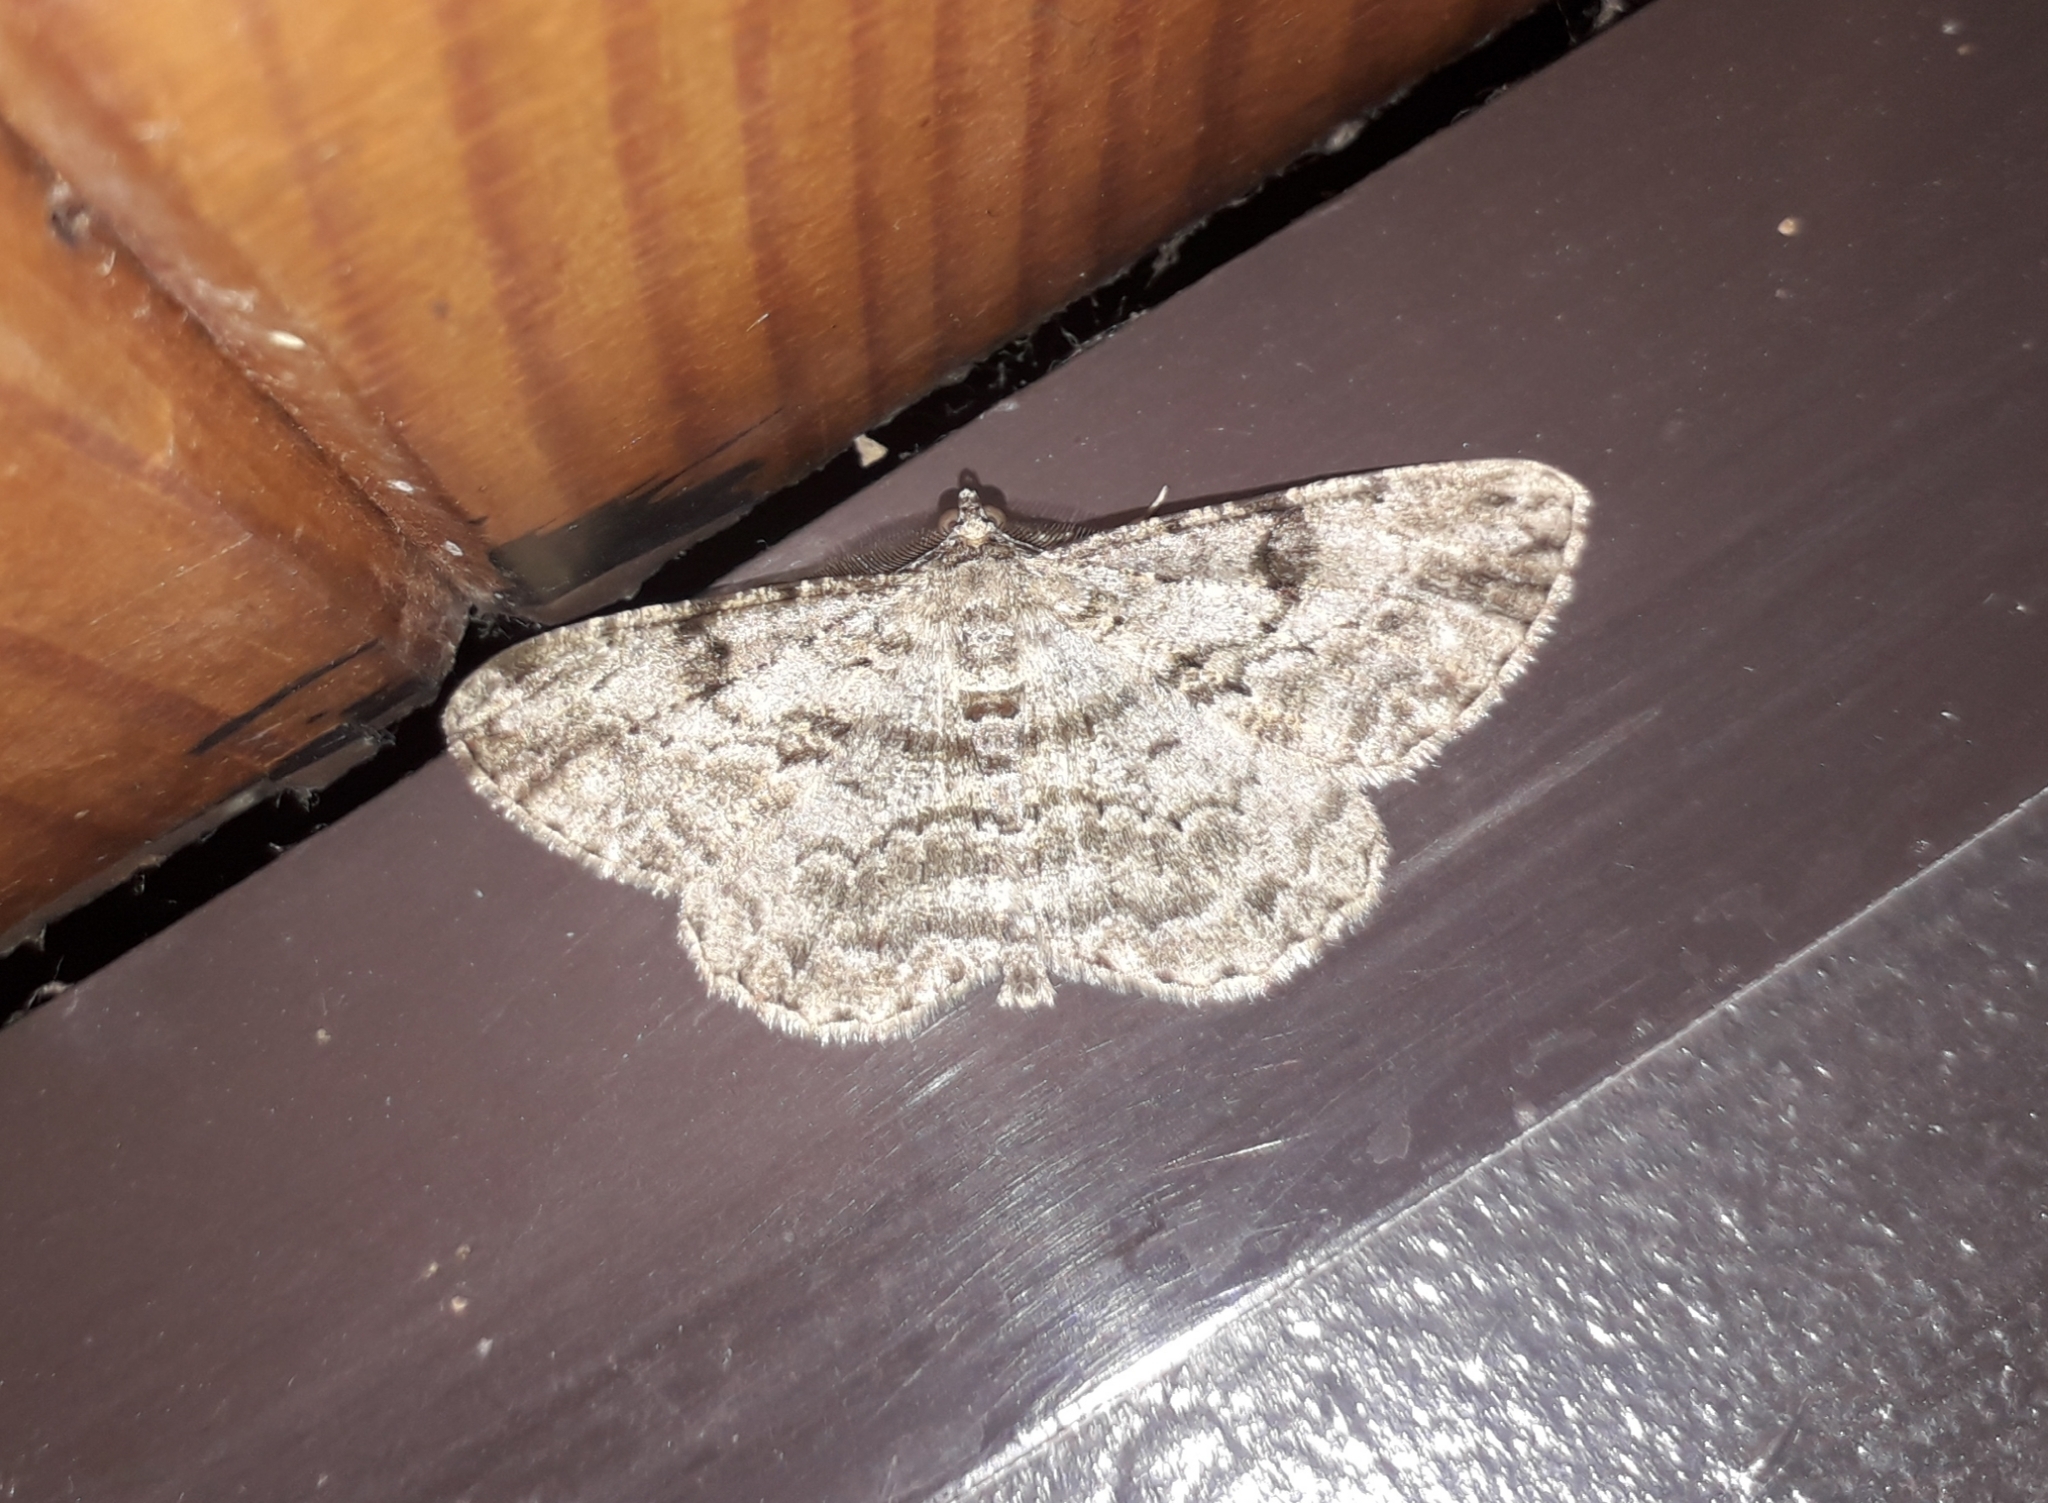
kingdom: Animalia
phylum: Arthropoda
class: Insecta
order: Lepidoptera
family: Geometridae
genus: Peribatodes
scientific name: Peribatodes rhomboidaria
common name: Willow beauty
